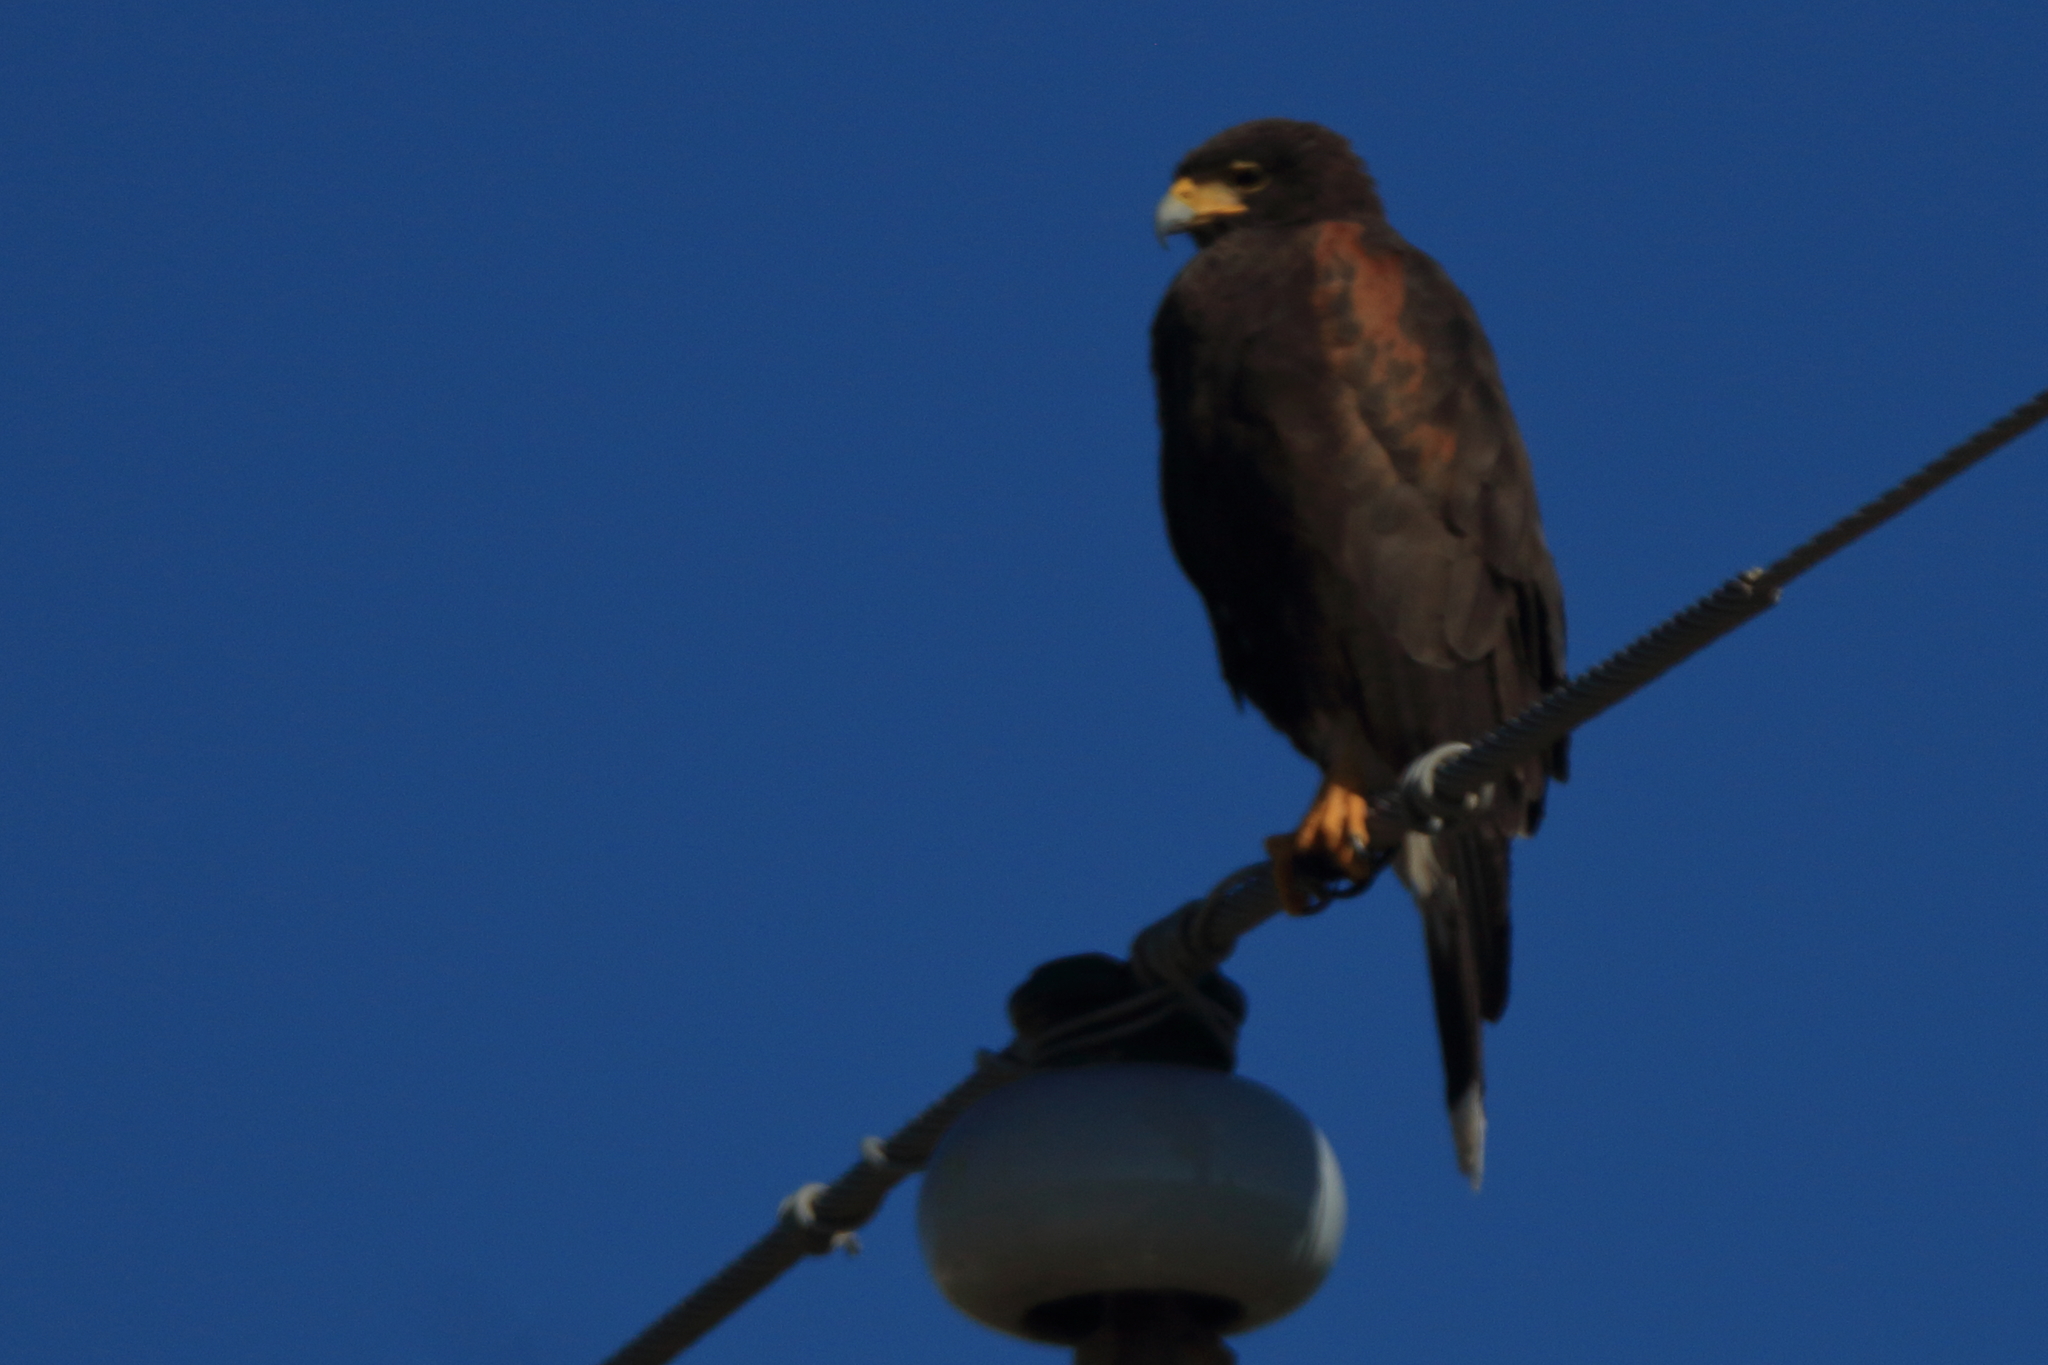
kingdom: Animalia
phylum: Chordata
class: Aves
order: Accipitriformes
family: Accipitridae
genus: Parabuteo
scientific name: Parabuteo unicinctus
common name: Harris's hawk
